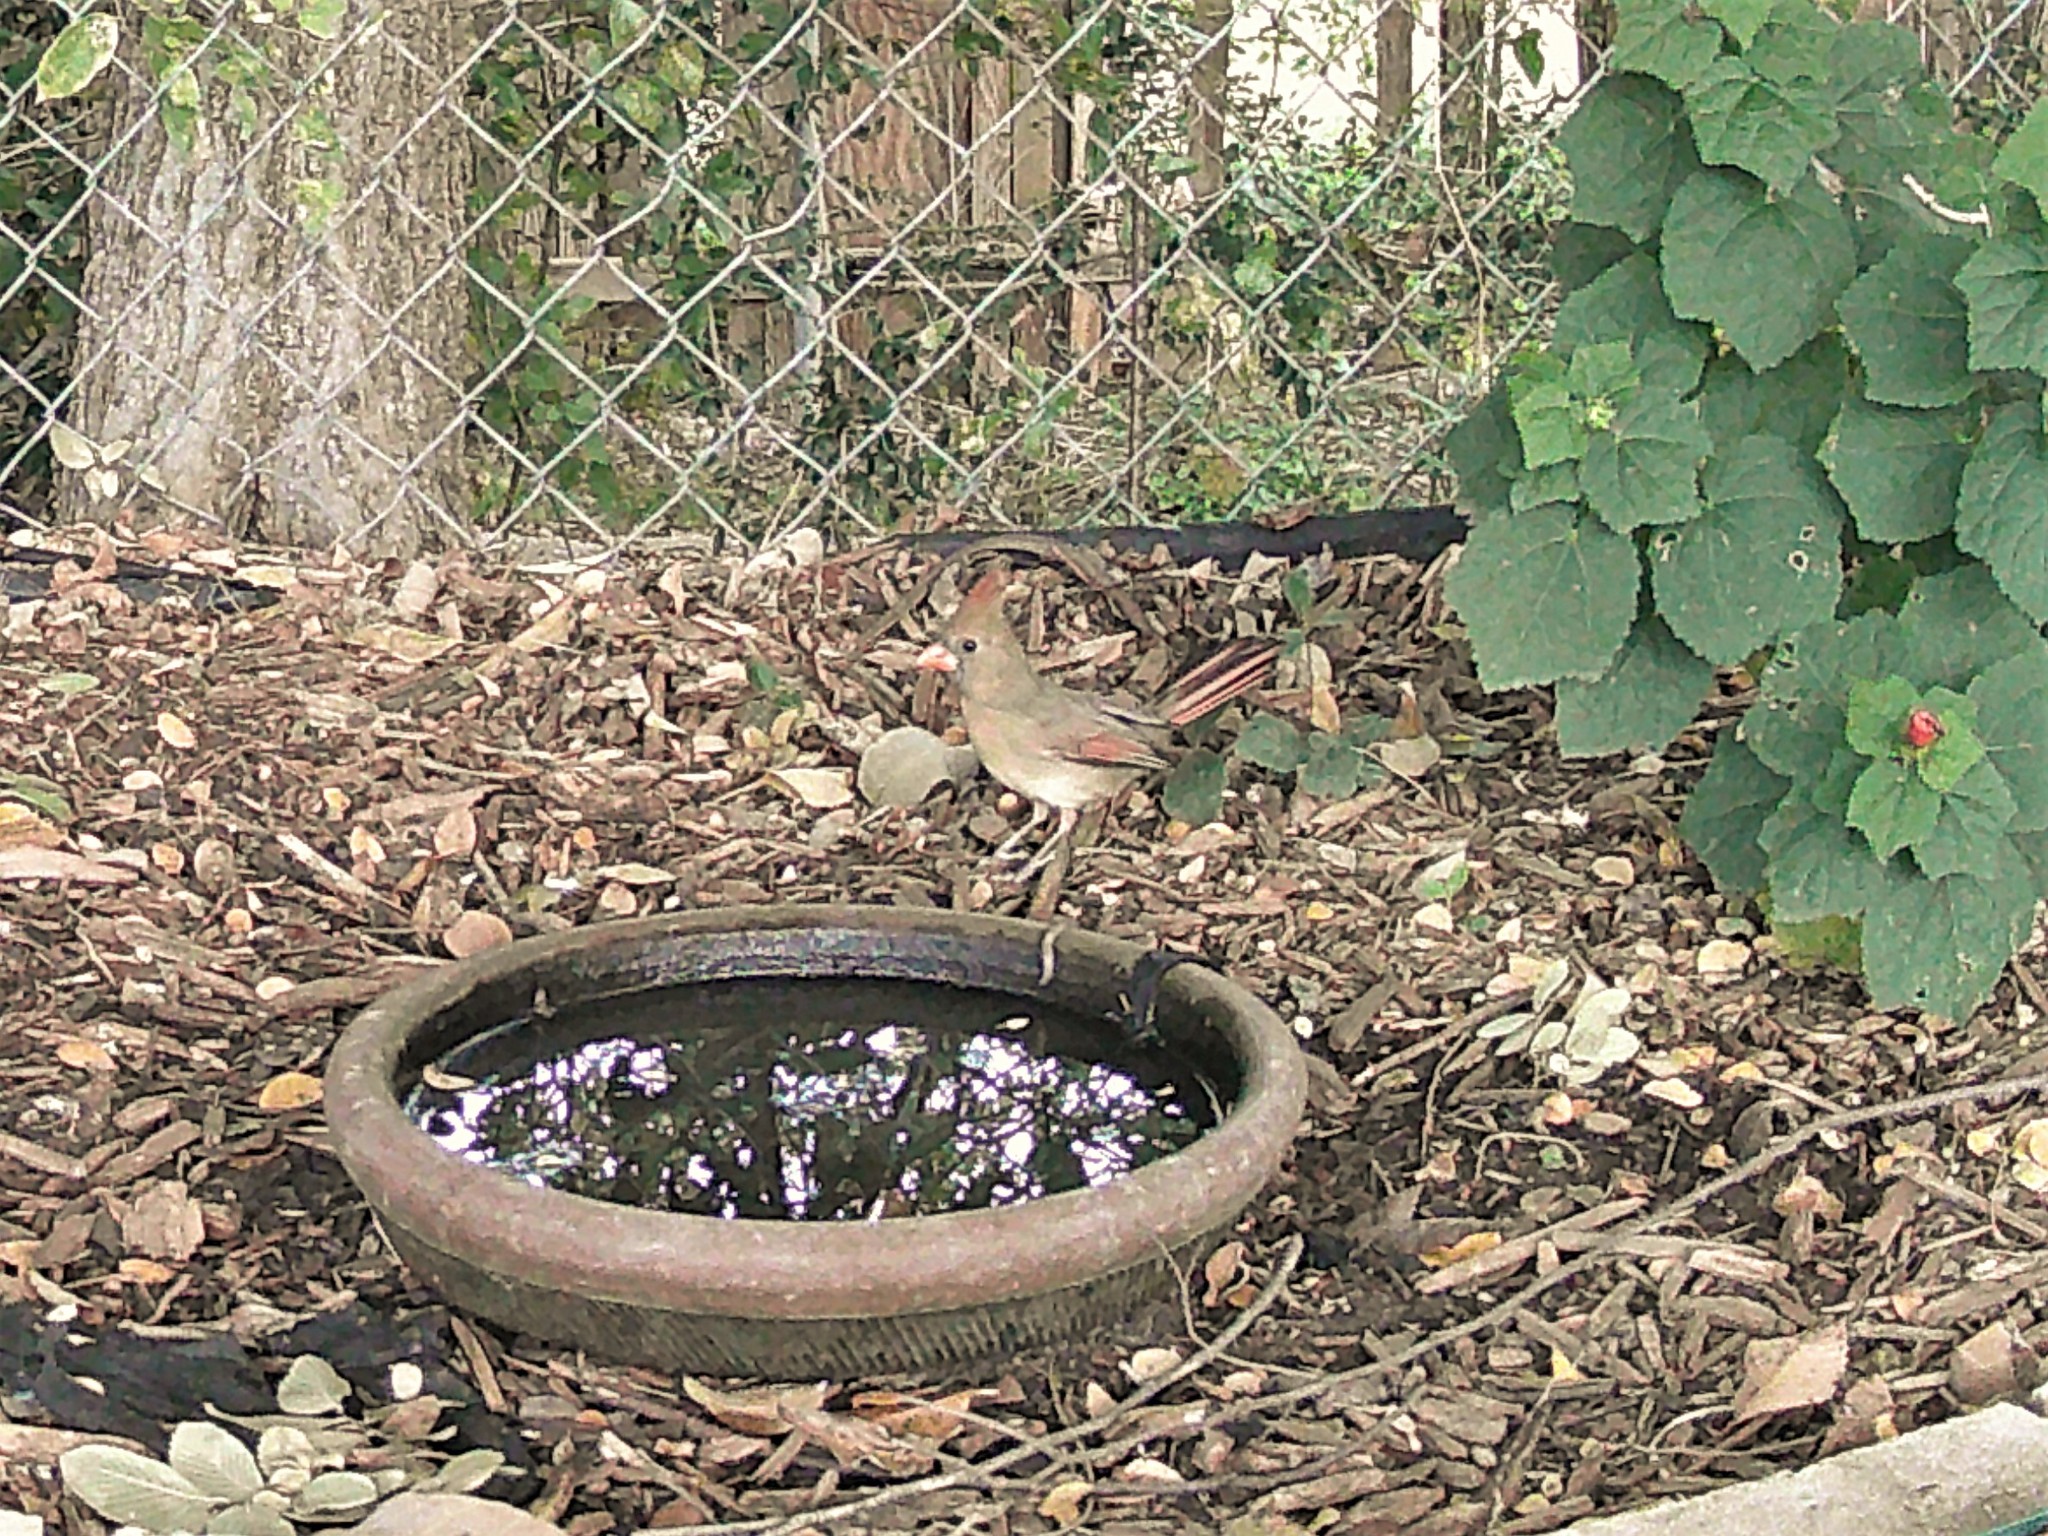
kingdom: Animalia
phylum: Chordata
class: Aves
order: Passeriformes
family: Cardinalidae
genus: Cardinalis
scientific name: Cardinalis cardinalis
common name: Northern cardinal
